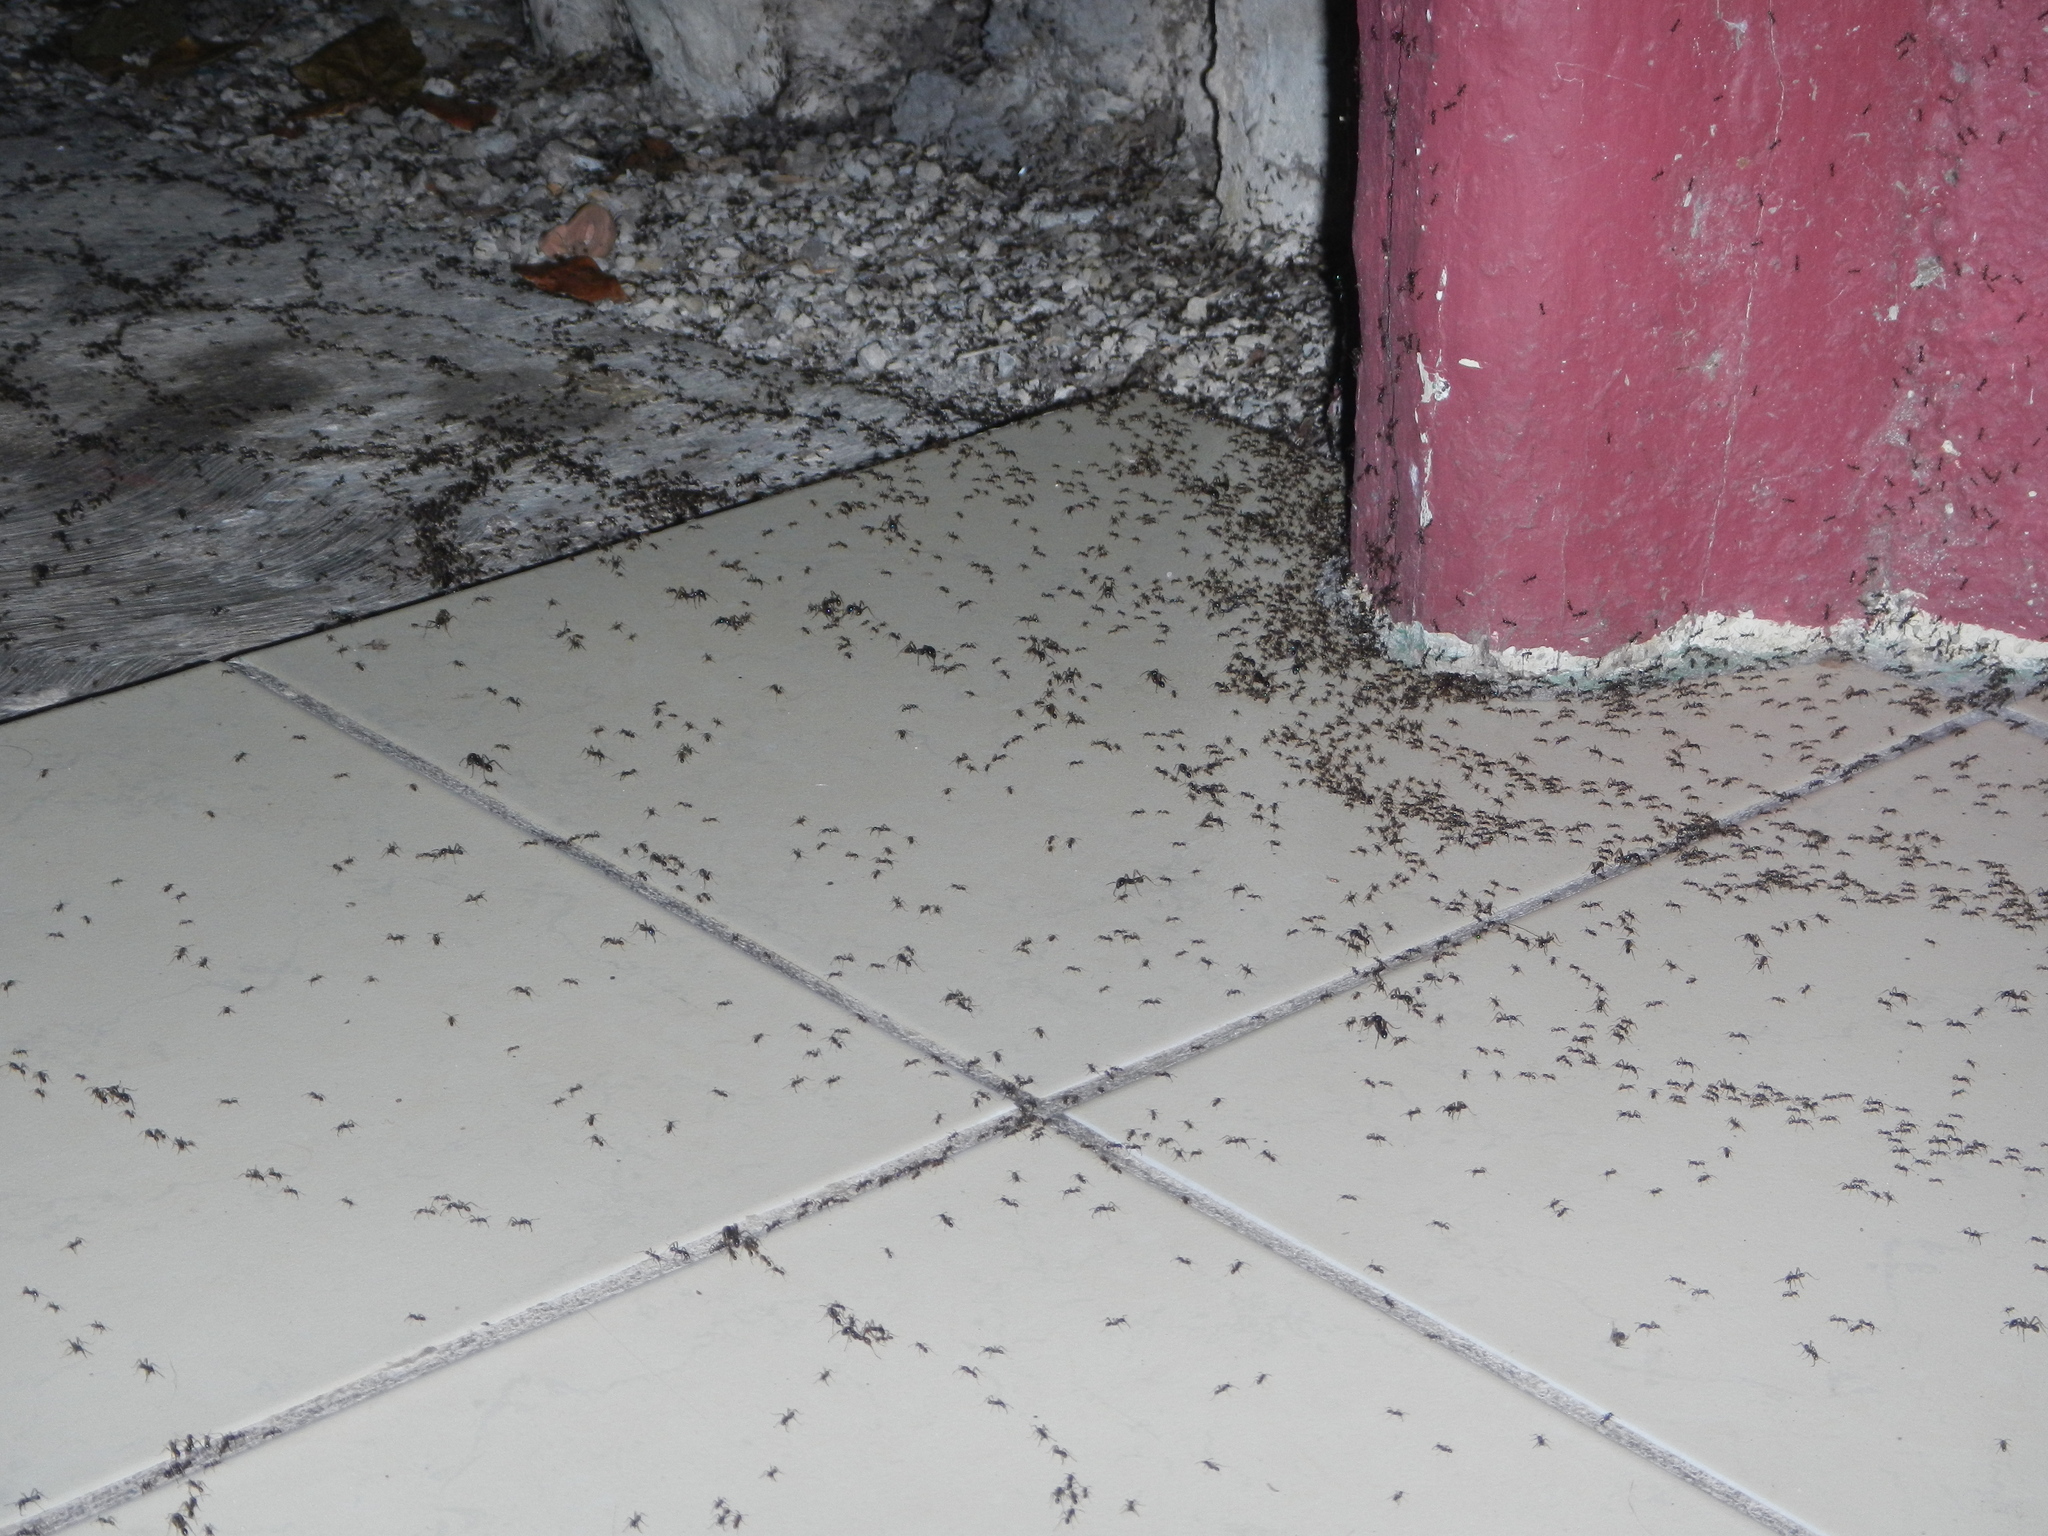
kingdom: Animalia
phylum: Arthropoda
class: Insecta
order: Hymenoptera
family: Formicidae
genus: Labidus
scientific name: Labidus praedator
